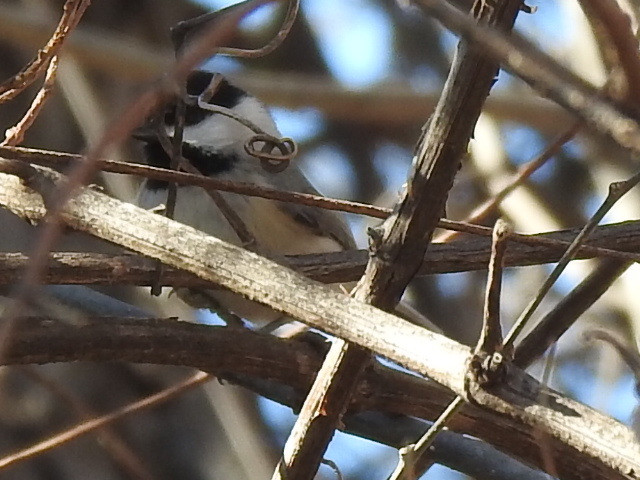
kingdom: Animalia
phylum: Chordata
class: Aves
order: Passeriformes
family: Paridae
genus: Poecile
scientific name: Poecile carolinensis
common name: Carolina chickadee
